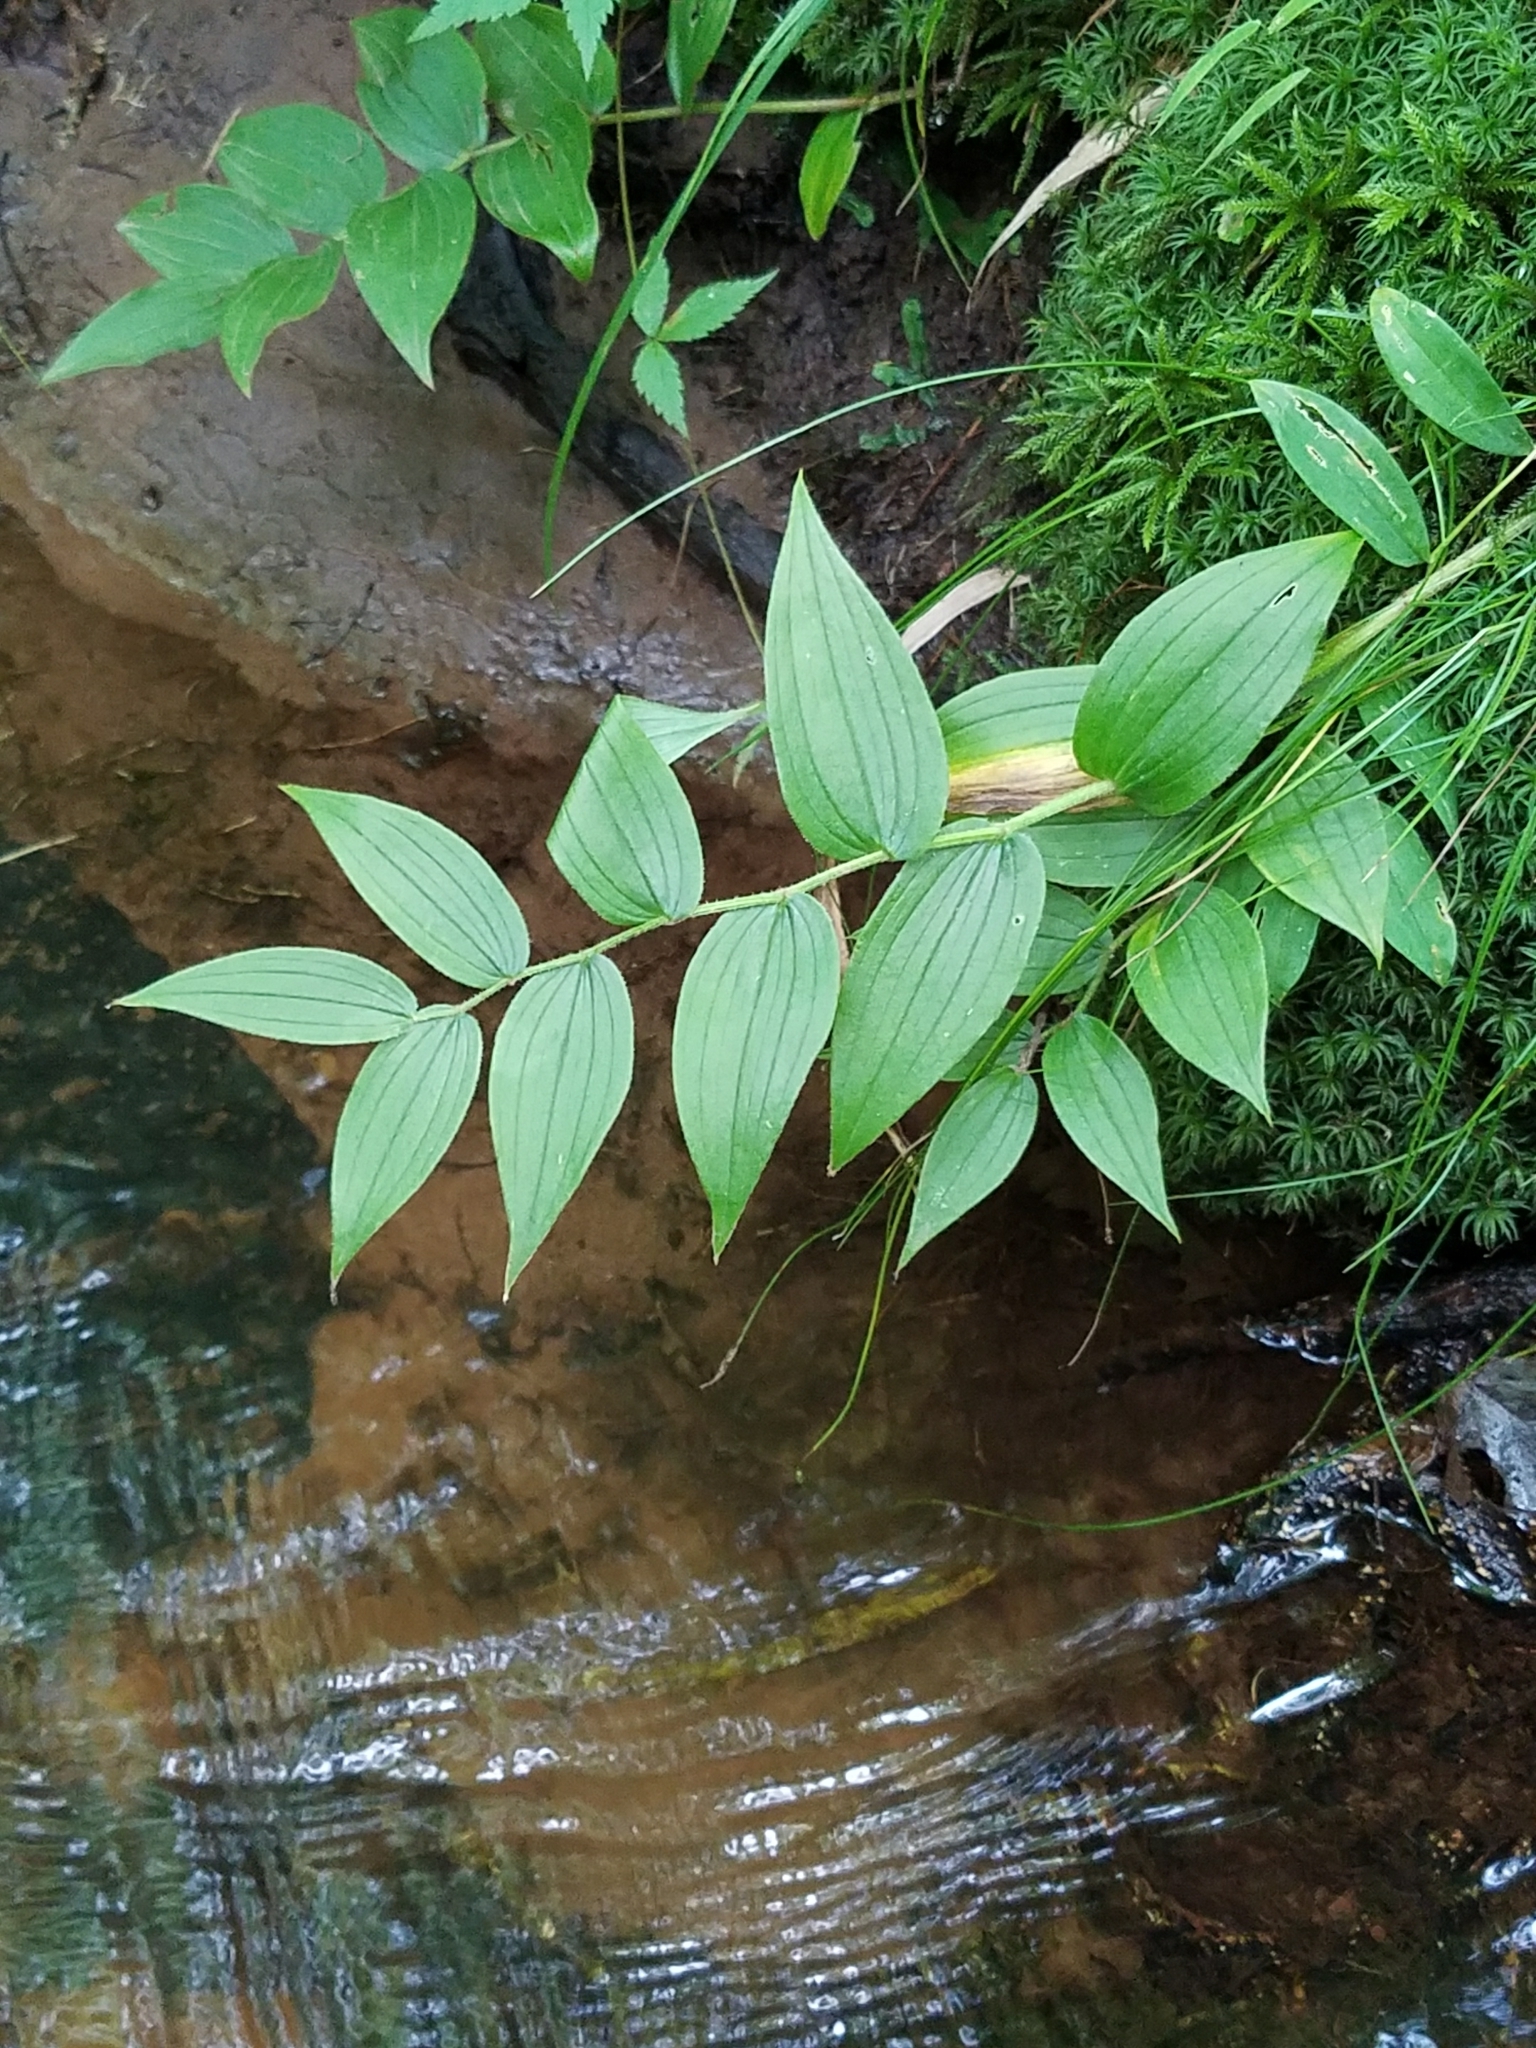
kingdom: Plantae
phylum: Tracheophyta
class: Liliopsida
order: Liliales
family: Liliaceae
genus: Streptopus
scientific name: Streptopus lanceolatus
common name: Rose mandarin
